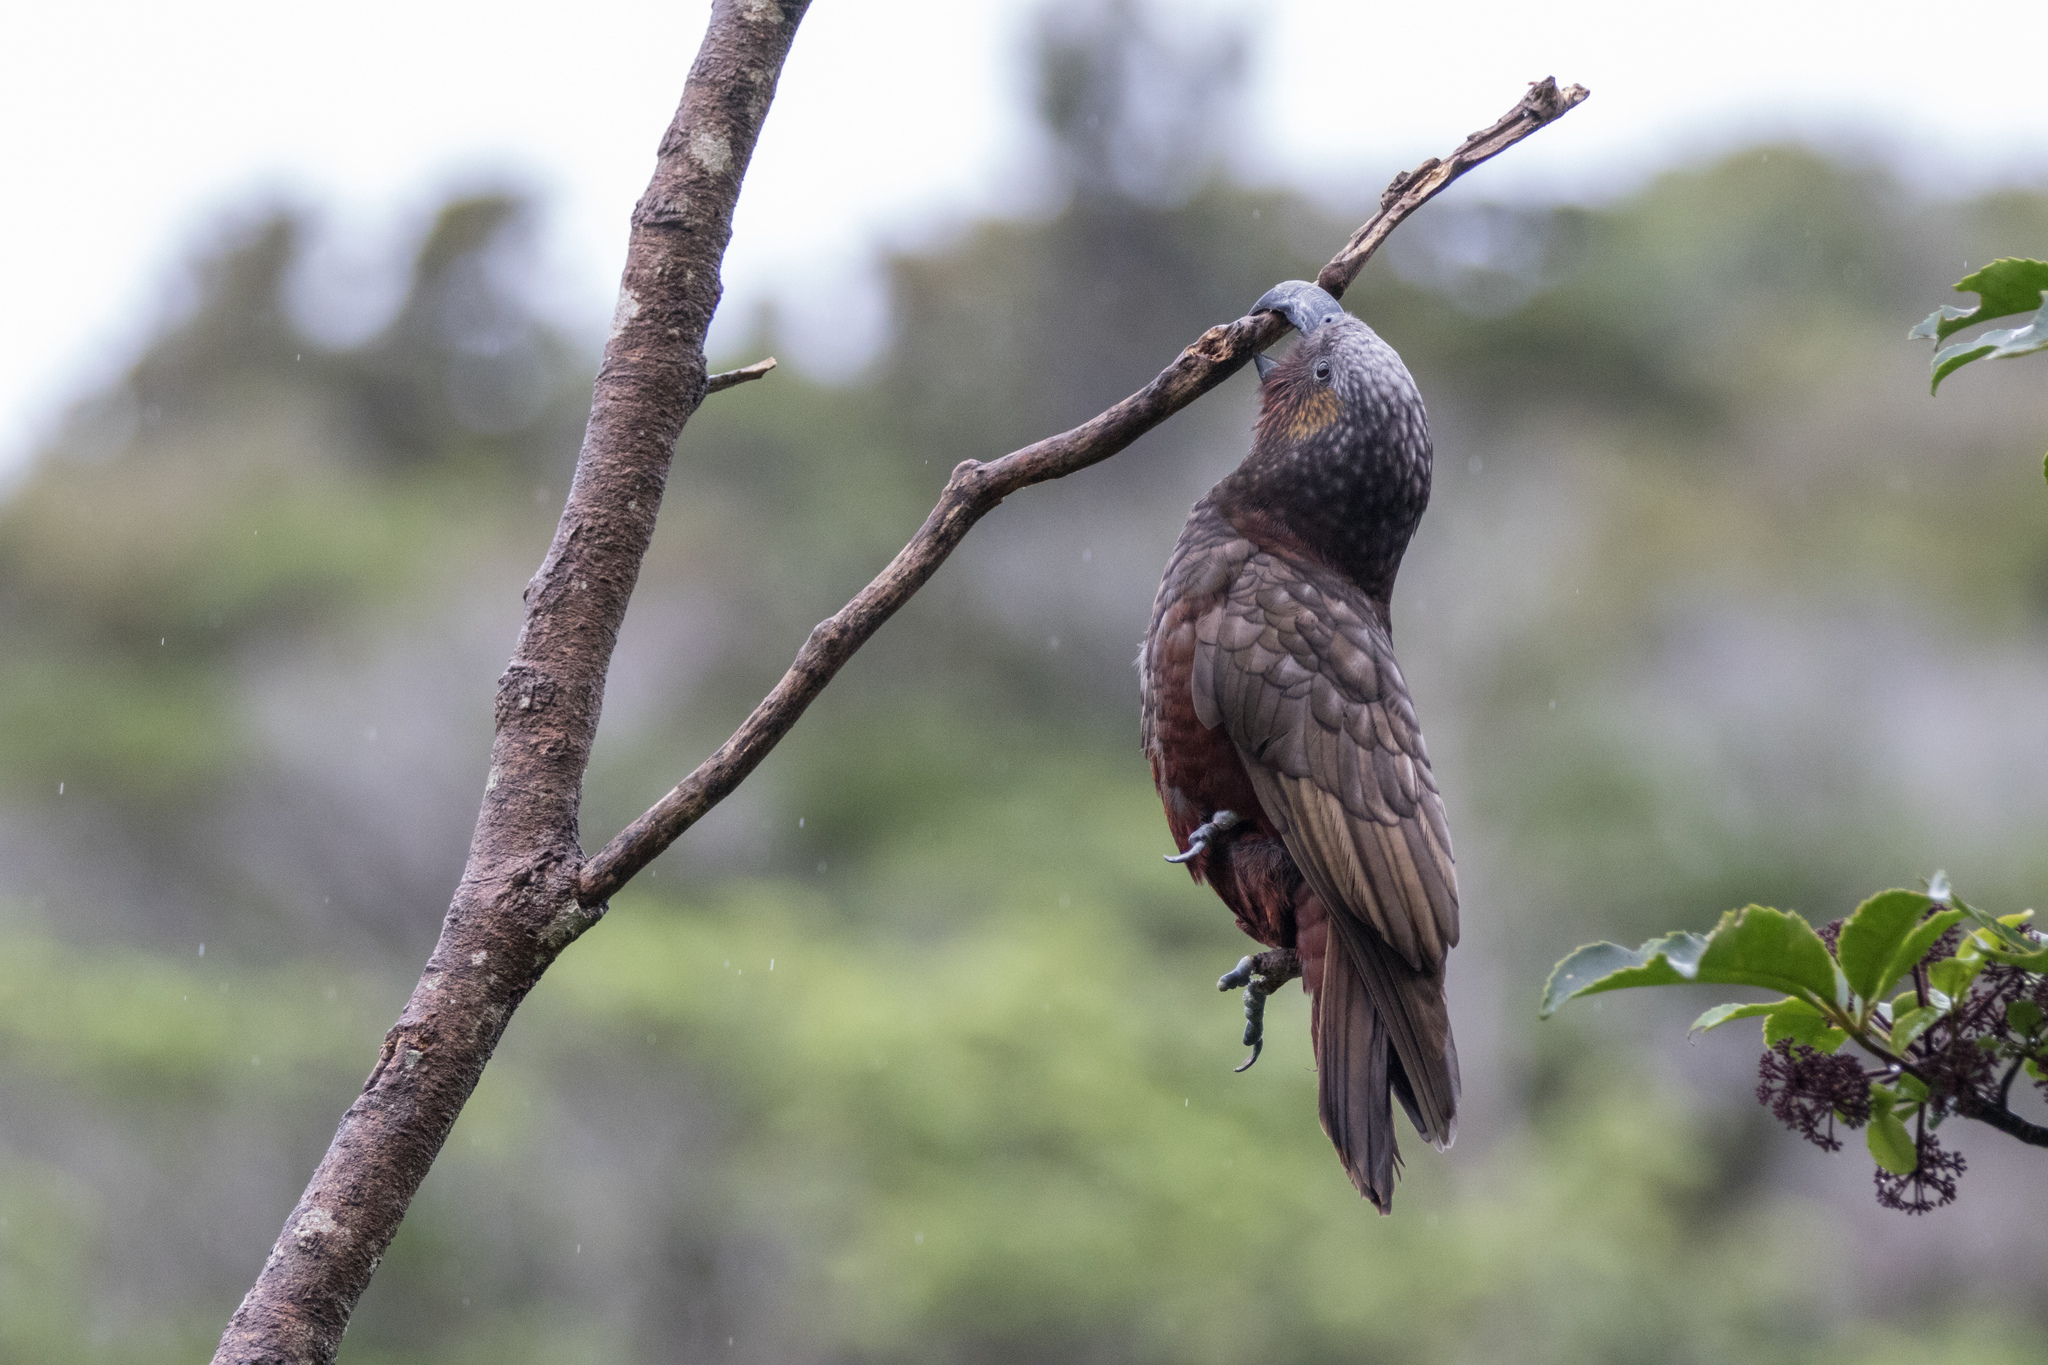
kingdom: Animalia
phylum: Chordata
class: Aves
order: Psittaciformes
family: Psittacidae
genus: Nestor
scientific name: Nestor meridionalis
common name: New zealand kaka
